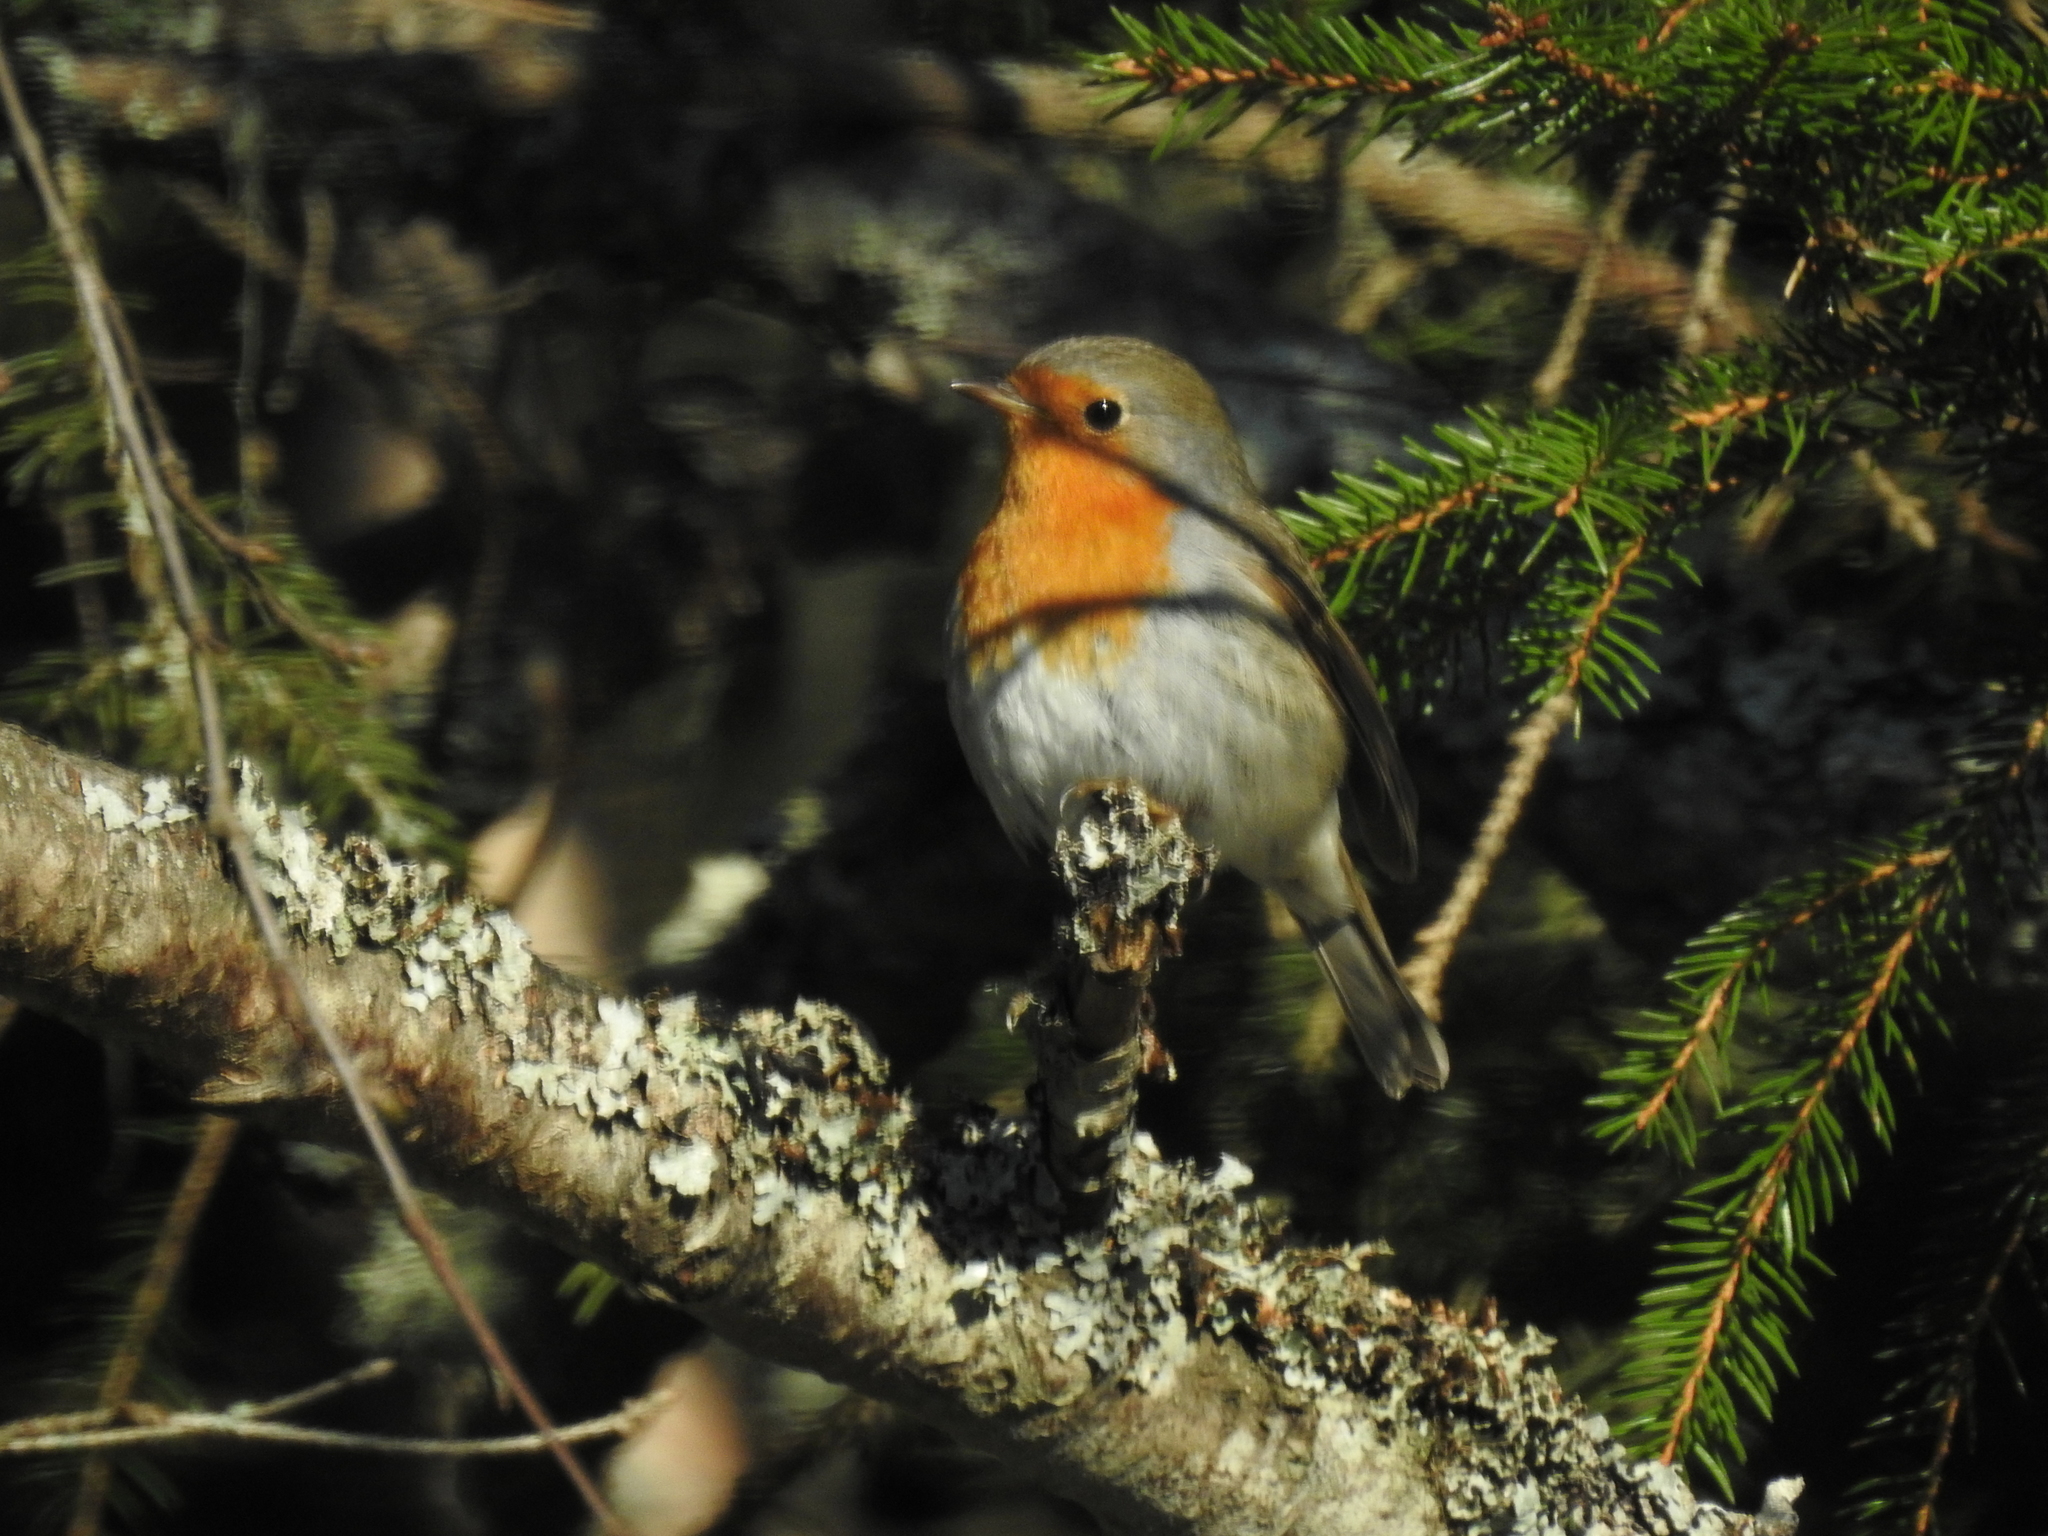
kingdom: Animalia
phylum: Chordata
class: Aves
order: Passeriformes
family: Muscicapidae
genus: Erithacus
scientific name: Erithacus rubecula
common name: European robin
